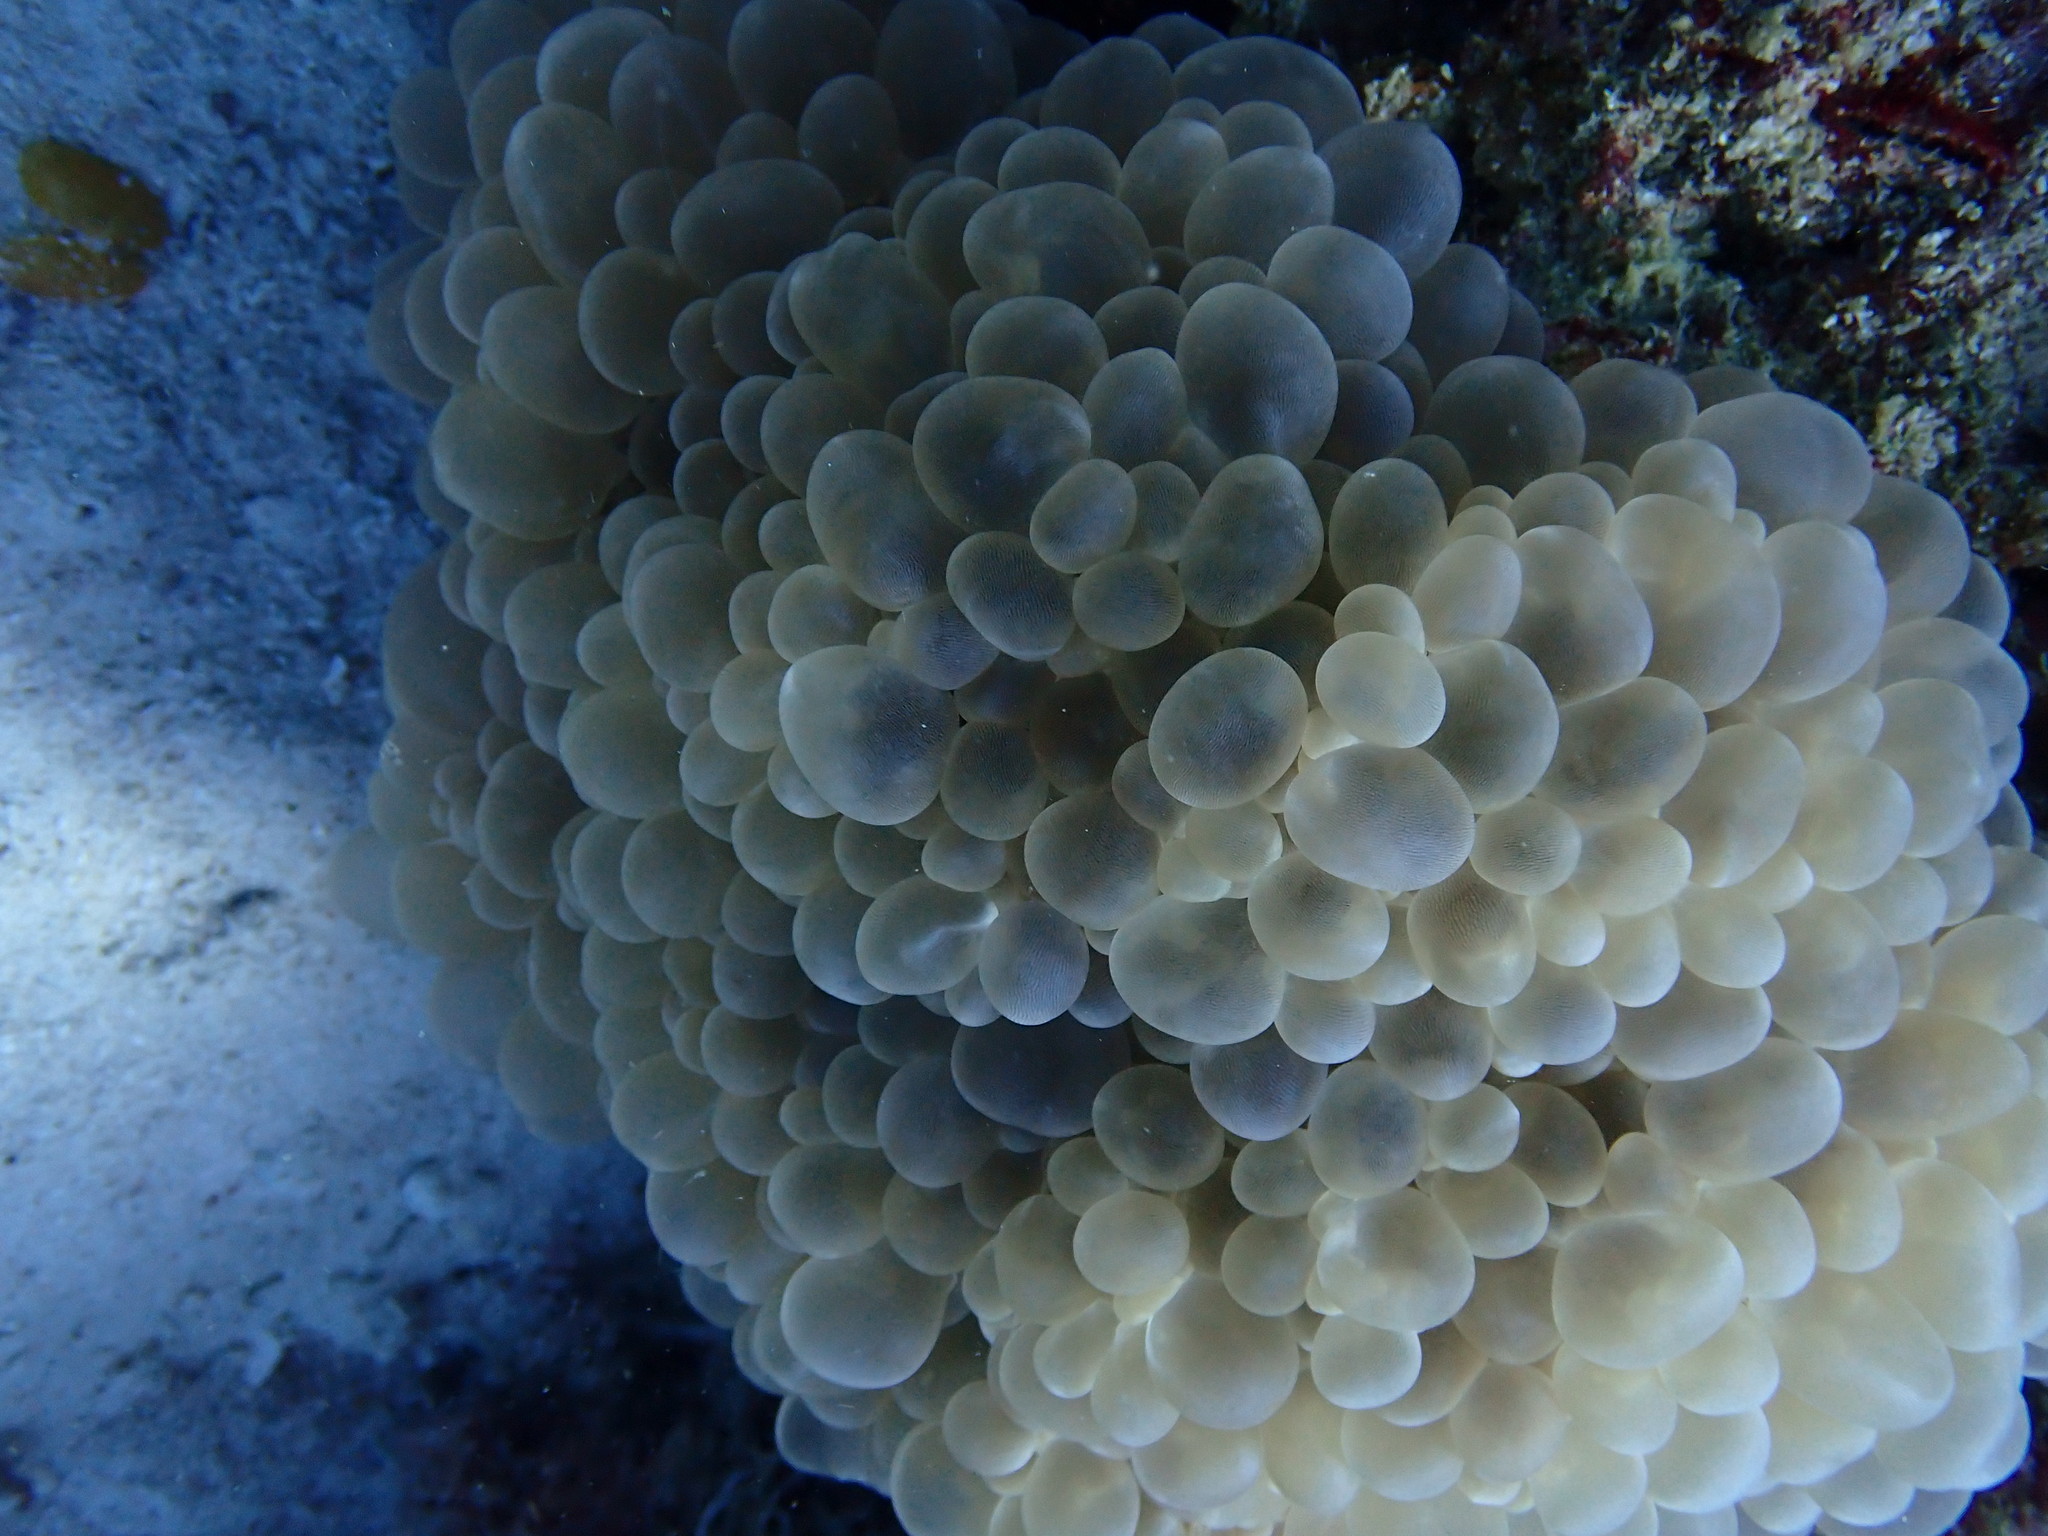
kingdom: Animalia
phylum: Cnidaria
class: Anthozoa
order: Scleractinia
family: Plerogyridae
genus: Plerogyra
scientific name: Plerogyra sinuosa
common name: Bubble coral
